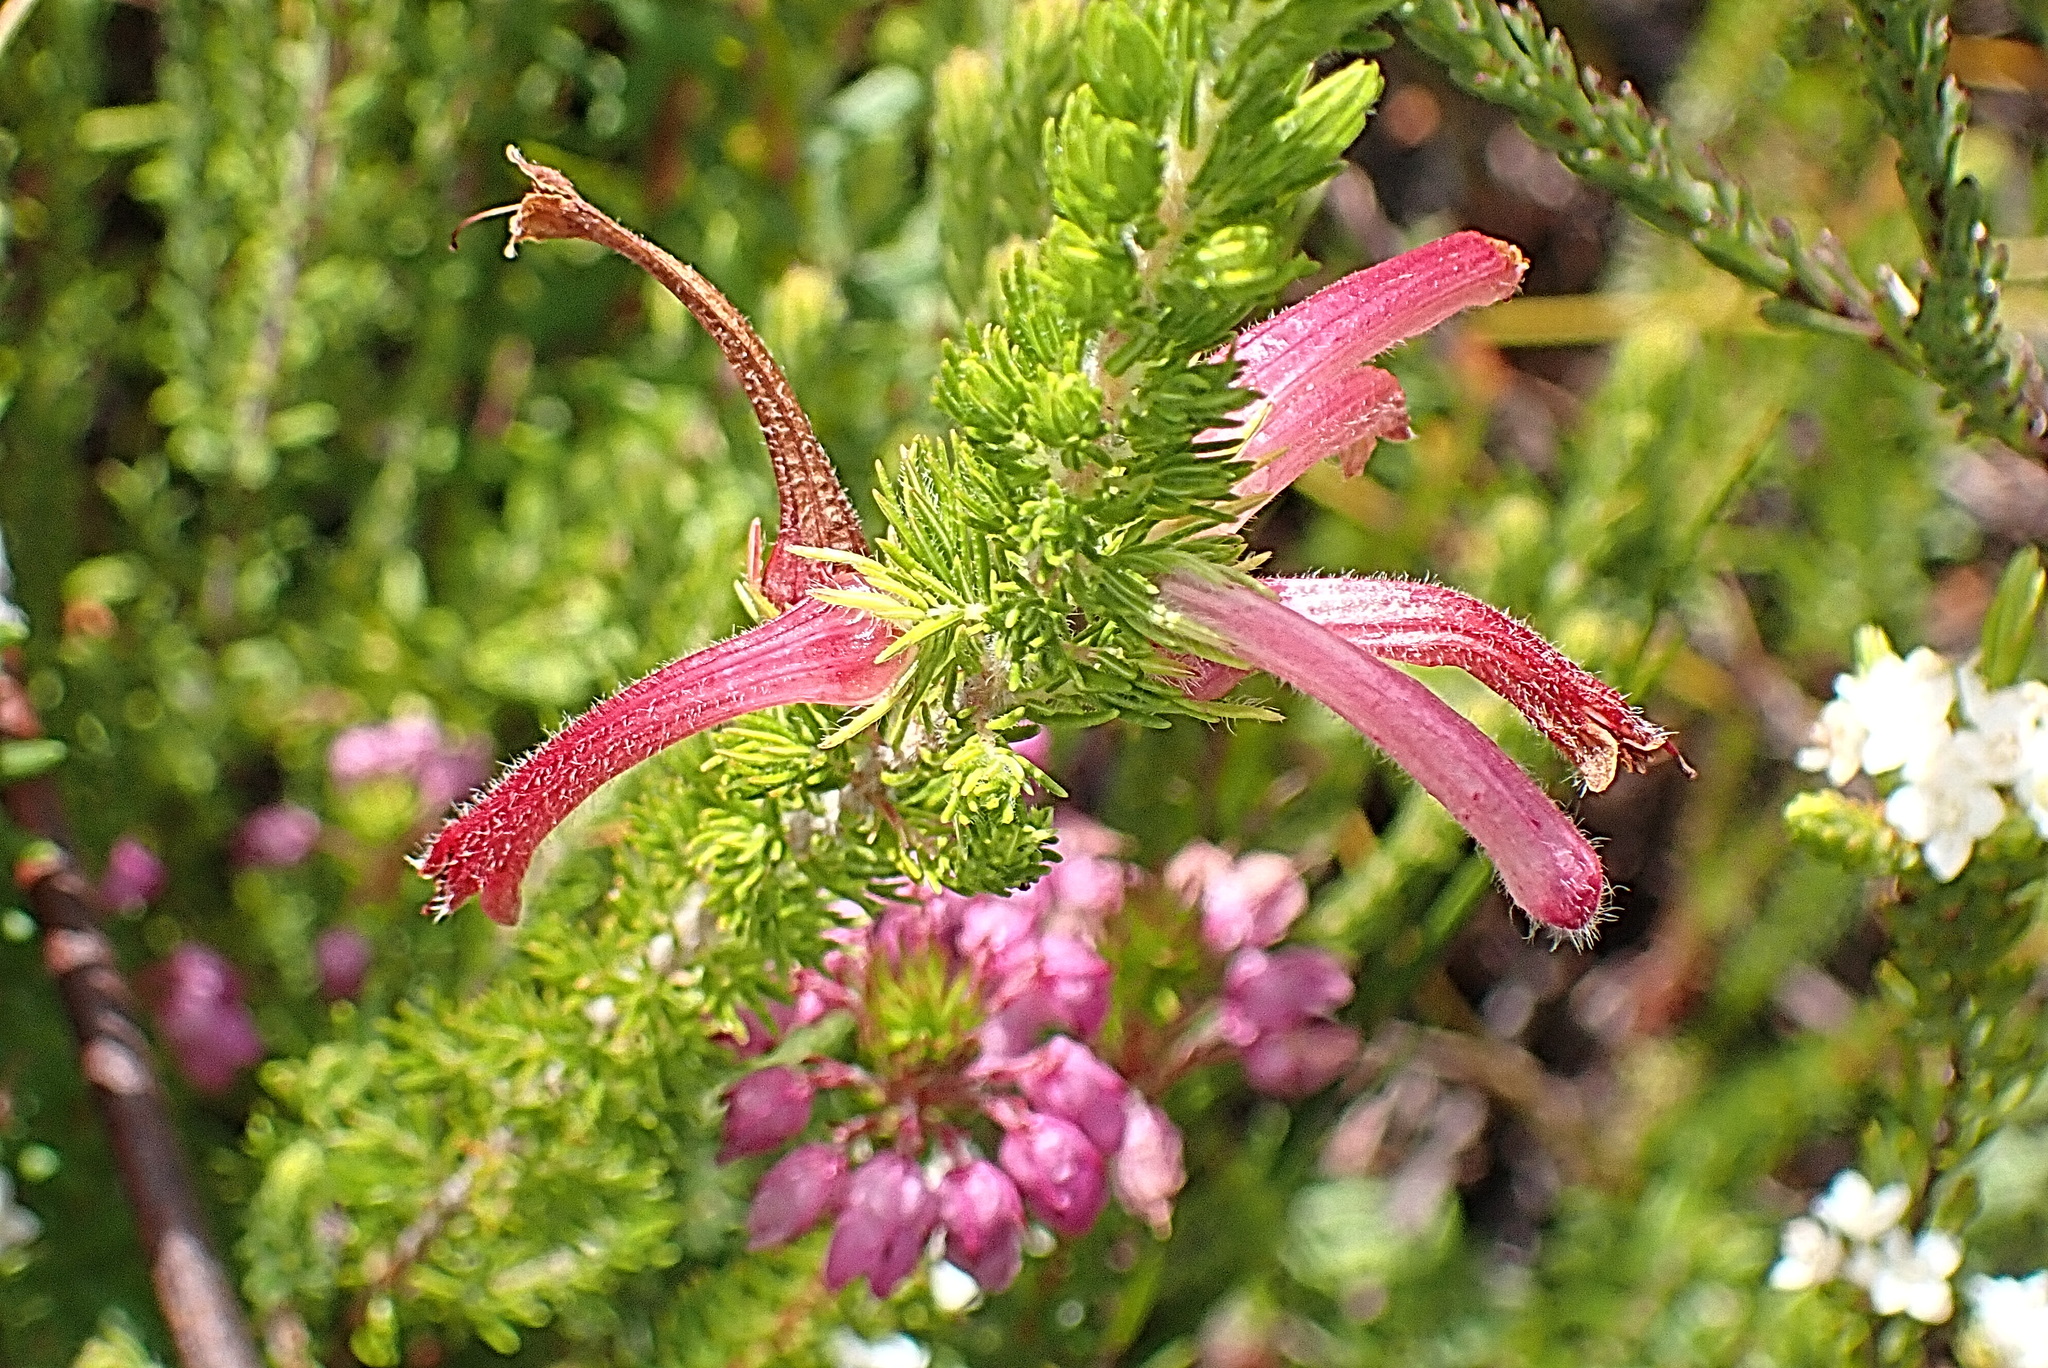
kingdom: Plantae
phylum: Tracheophyta
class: Magnoliopsida
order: Ericales
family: Ericaceae
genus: Erica
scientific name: Erica curviflora
